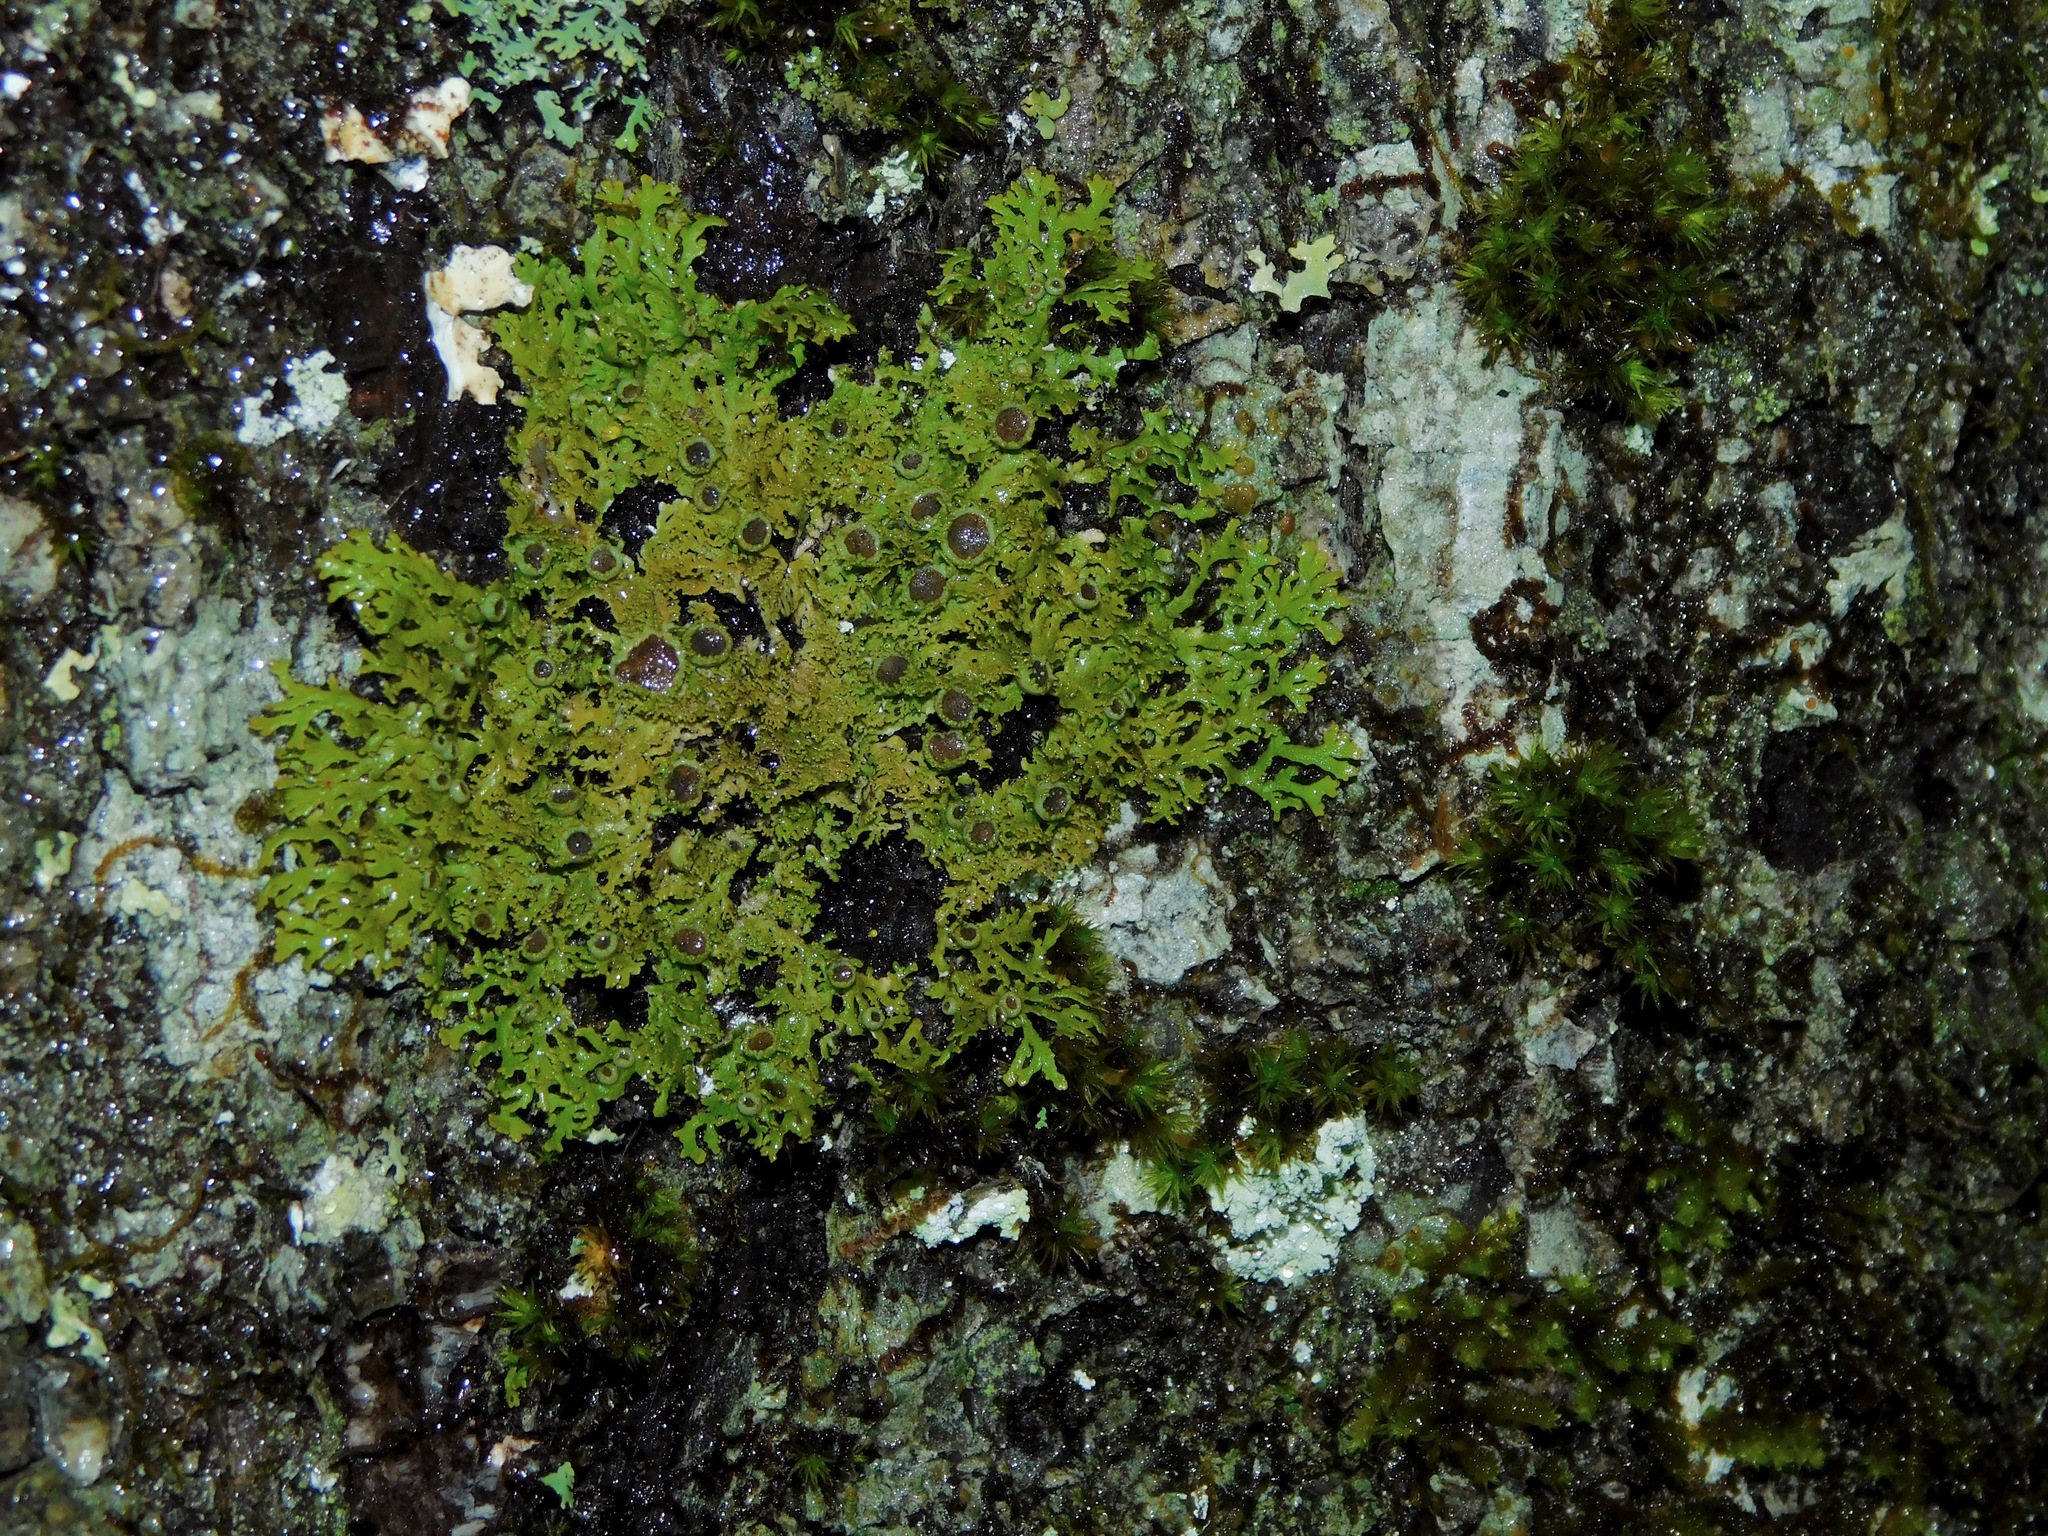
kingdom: Fungi
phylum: Ascomycota
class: Lecanoromycetes
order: Caliciales
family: Physciaceae
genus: Kurokawia
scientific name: Kurokawia palmulata
